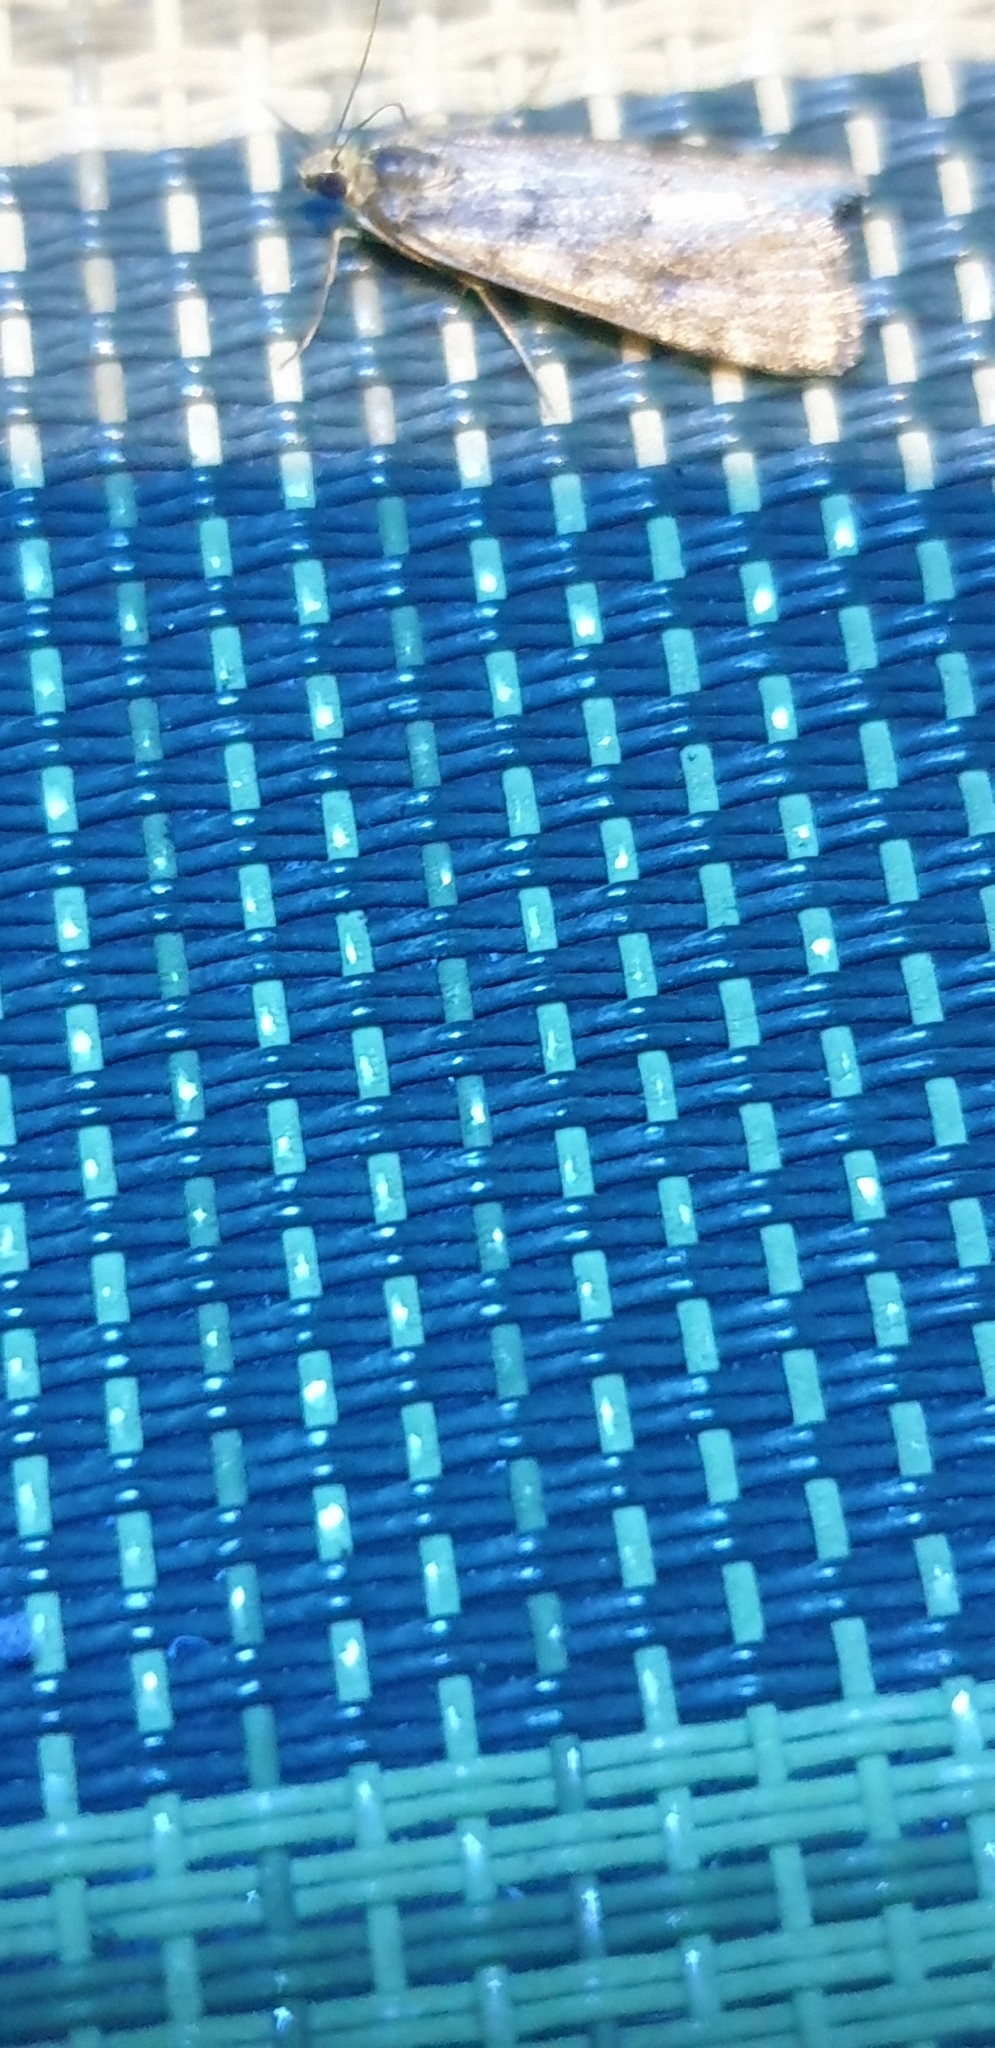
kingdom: Animalia
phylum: Arthropoda
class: Insecta
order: Lepidoptera
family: Crambidae
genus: Achyra
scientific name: Achyra affinitalis
